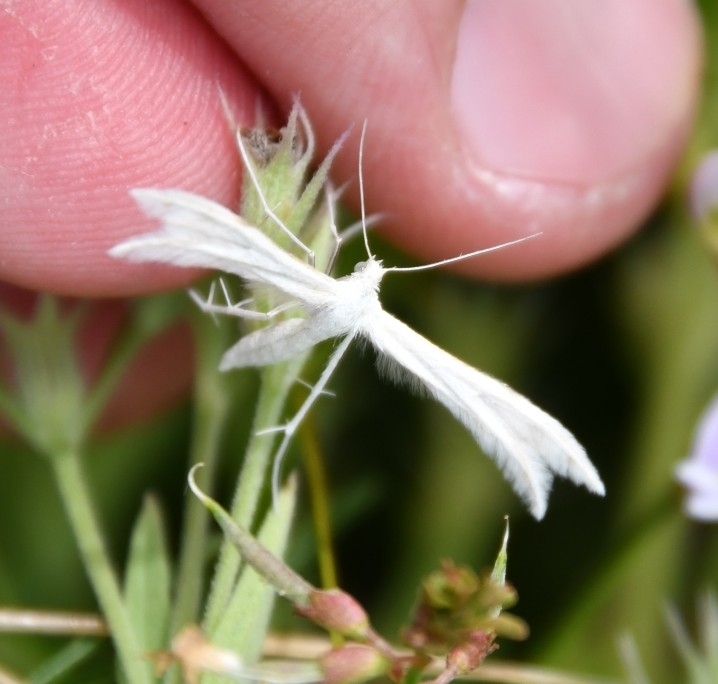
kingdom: Animalia
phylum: Arthropoda
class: Insecta
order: Lepidoptera
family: Pterophoridae
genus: Pterophorus
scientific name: Pterophorus pentadactyla
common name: White plume moth
